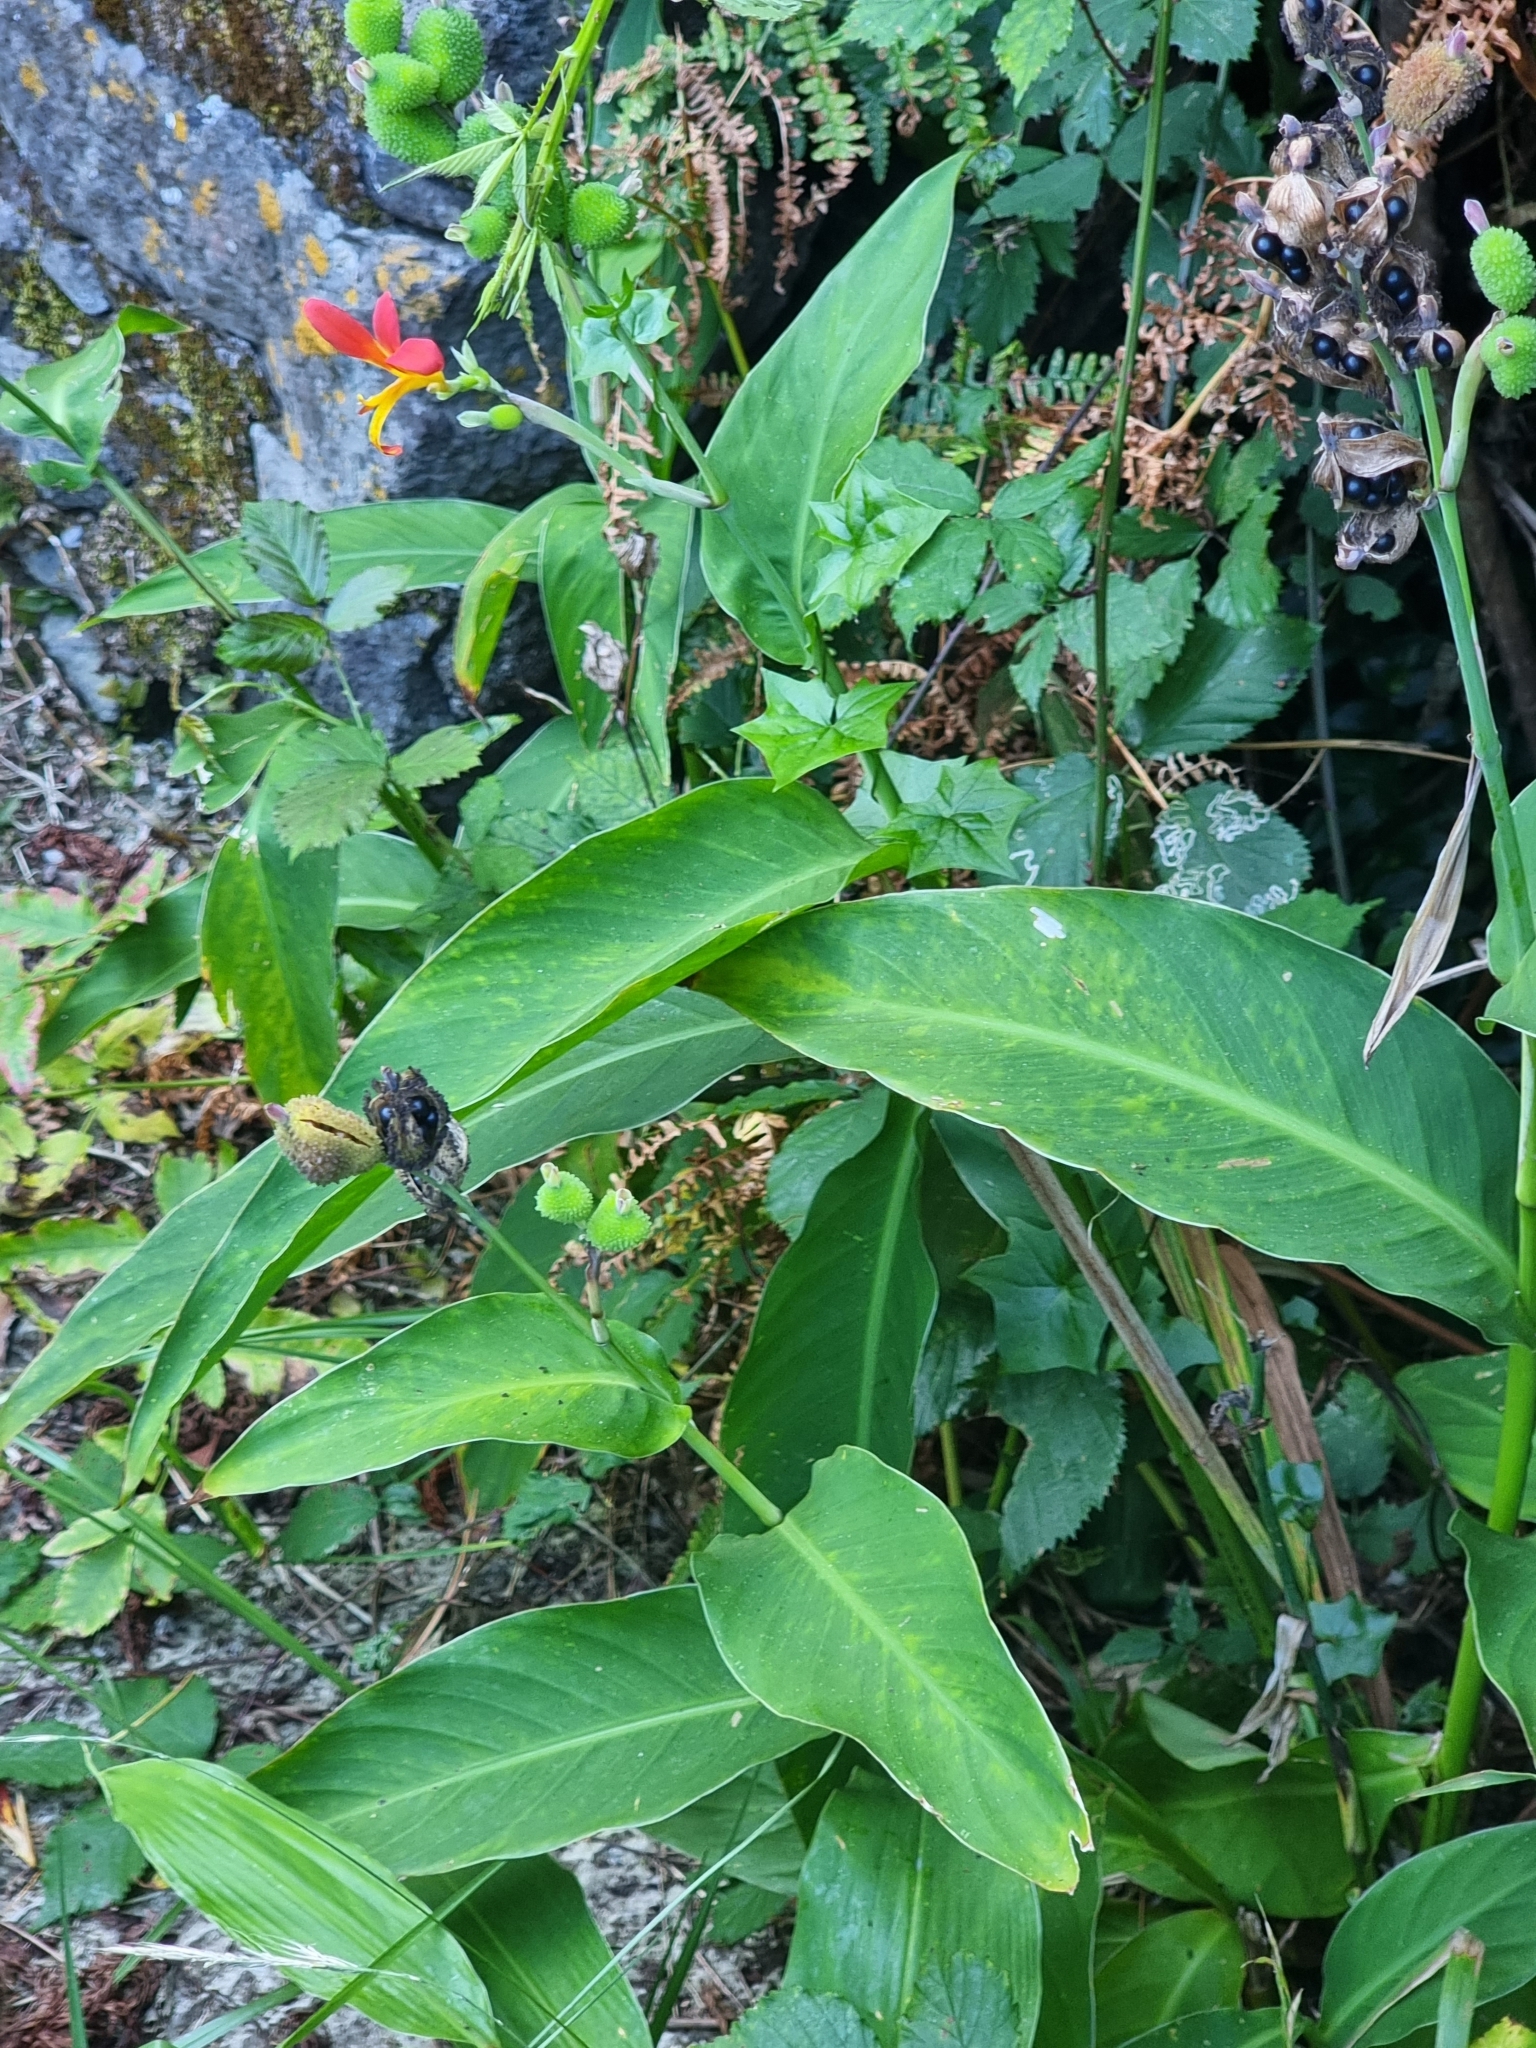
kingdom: Plantae
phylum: Tracheophyta
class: Liliopsida
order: Zingiberales
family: Cannaceae
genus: Canna
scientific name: Canna indica
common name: Indian shot
